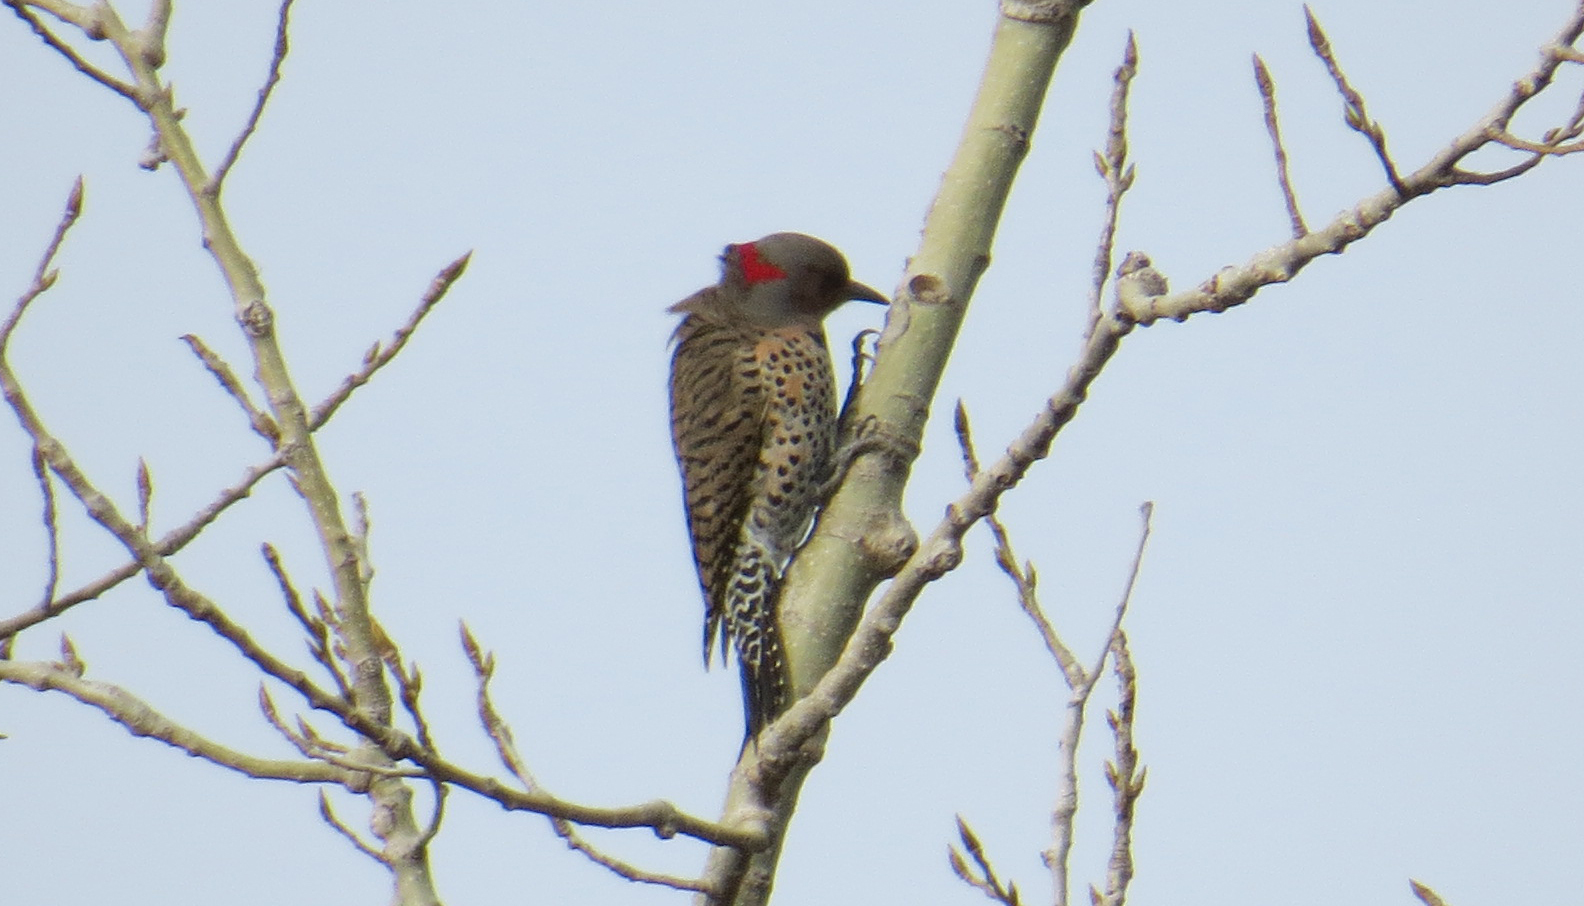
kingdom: Animalia
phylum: Chordata
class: Aves
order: Piciformes
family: Picidae
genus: Colaptes
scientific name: Colaptes auratus
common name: Northern flicker
